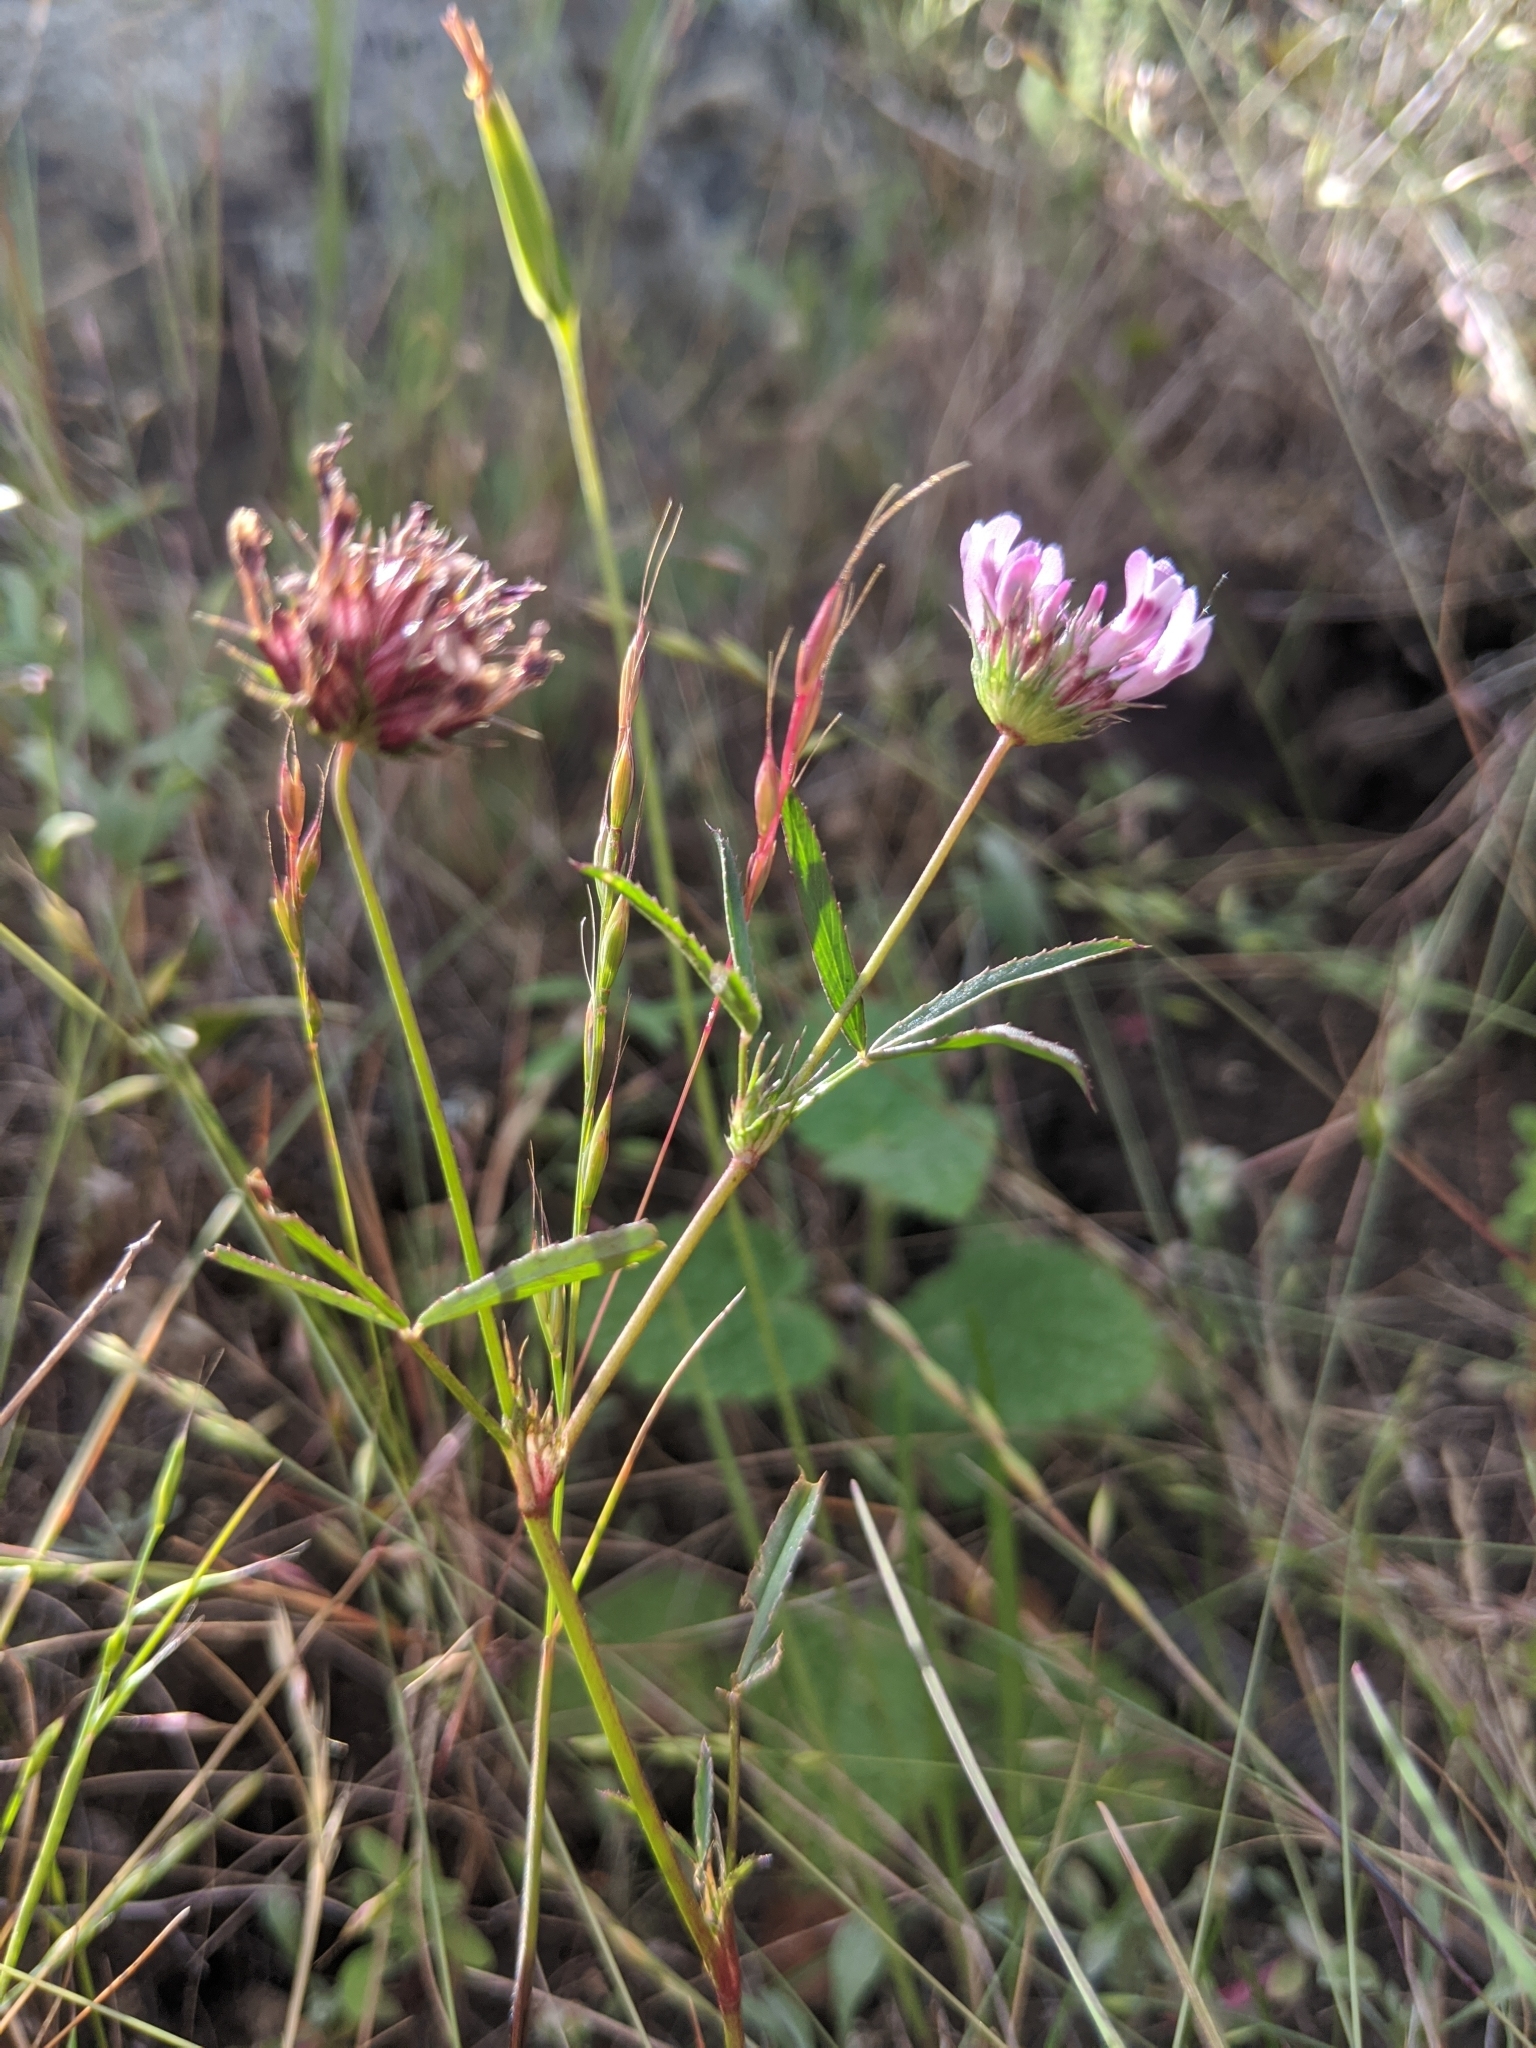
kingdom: Plantae
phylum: Tracheophyta
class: Magnoliopsida
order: Fabales
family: Fabaceae
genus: Trifolium
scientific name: Trifolium willdenovii
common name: Tomcat clover
